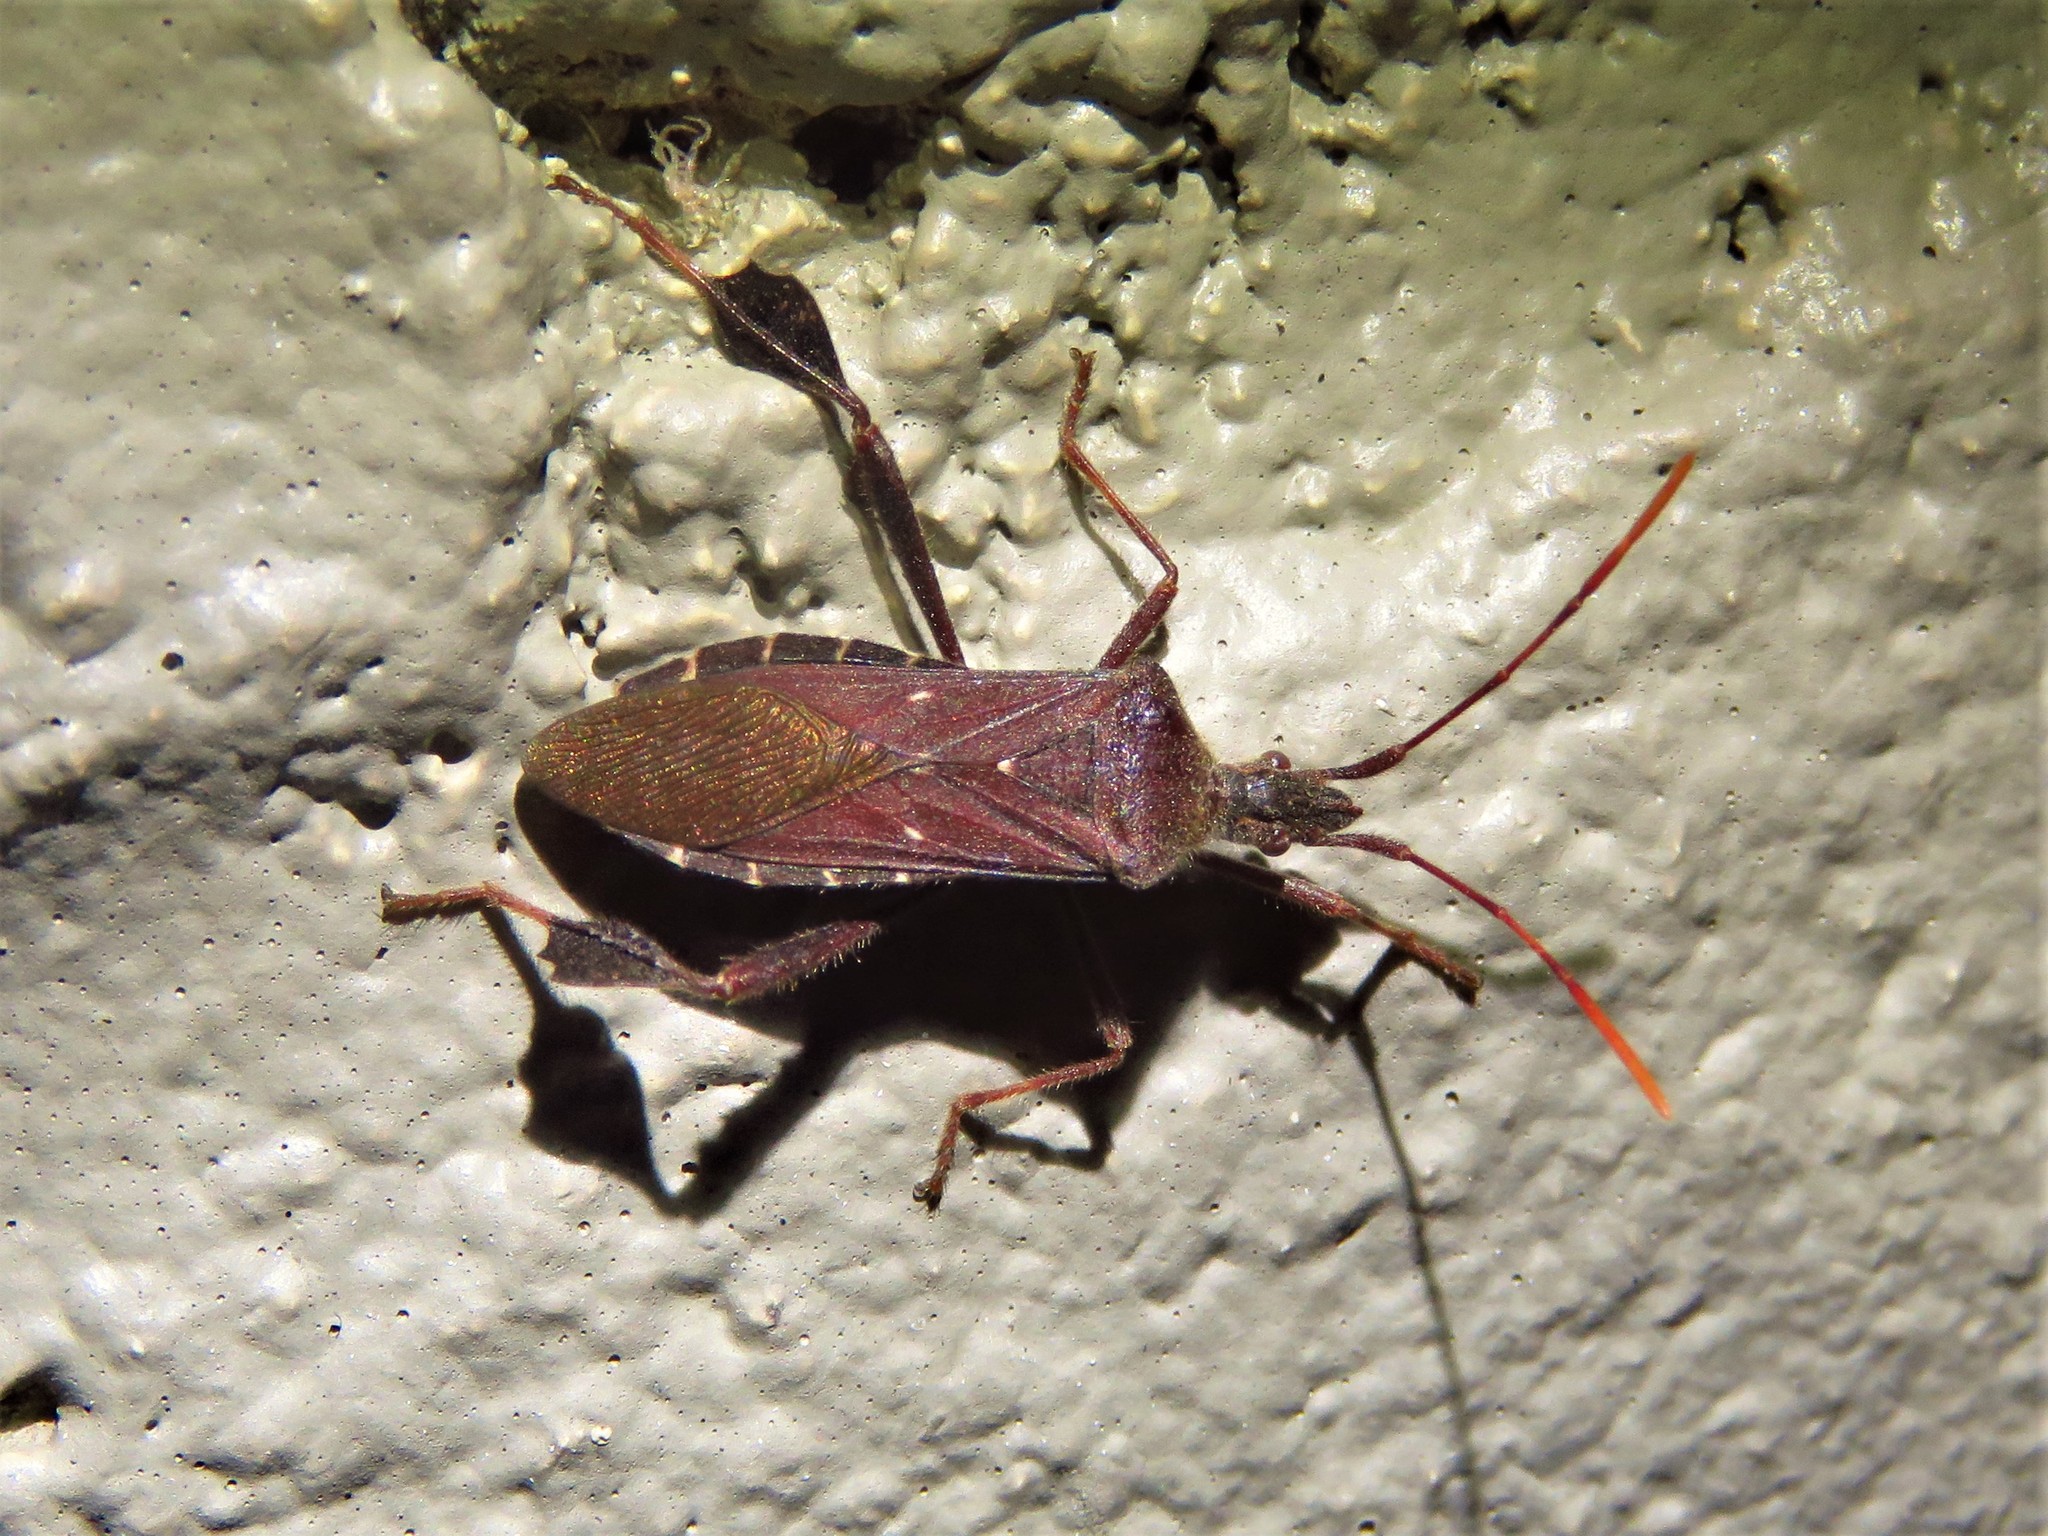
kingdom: Animalia
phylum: Arthropoda
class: Insecta
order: Hemiptera
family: Coreidae
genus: Leptoglossus
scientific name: Leptoglossus oppositus
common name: Northern leaf-footed bug
